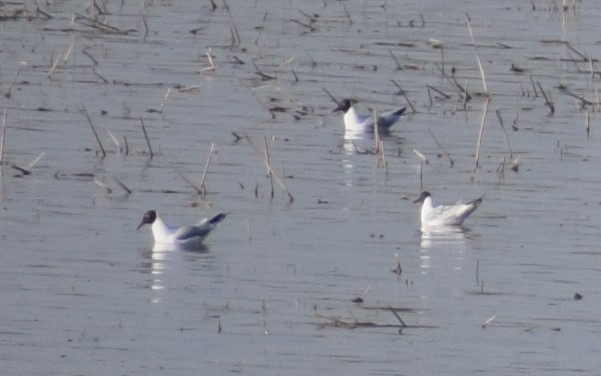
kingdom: Animalia
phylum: Chordata
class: Aves
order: Charadriiformes
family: Laridae
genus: Chroicocephalus
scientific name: Chroicocephalus ridibundus
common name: Black-headed gull
